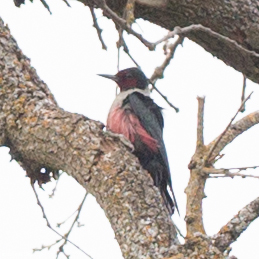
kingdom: Animalia
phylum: Chordata
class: Aves
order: Piciformes
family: Picidae
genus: Melanerpes
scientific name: Melanerpes lewis
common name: Lewis's woodpecker
